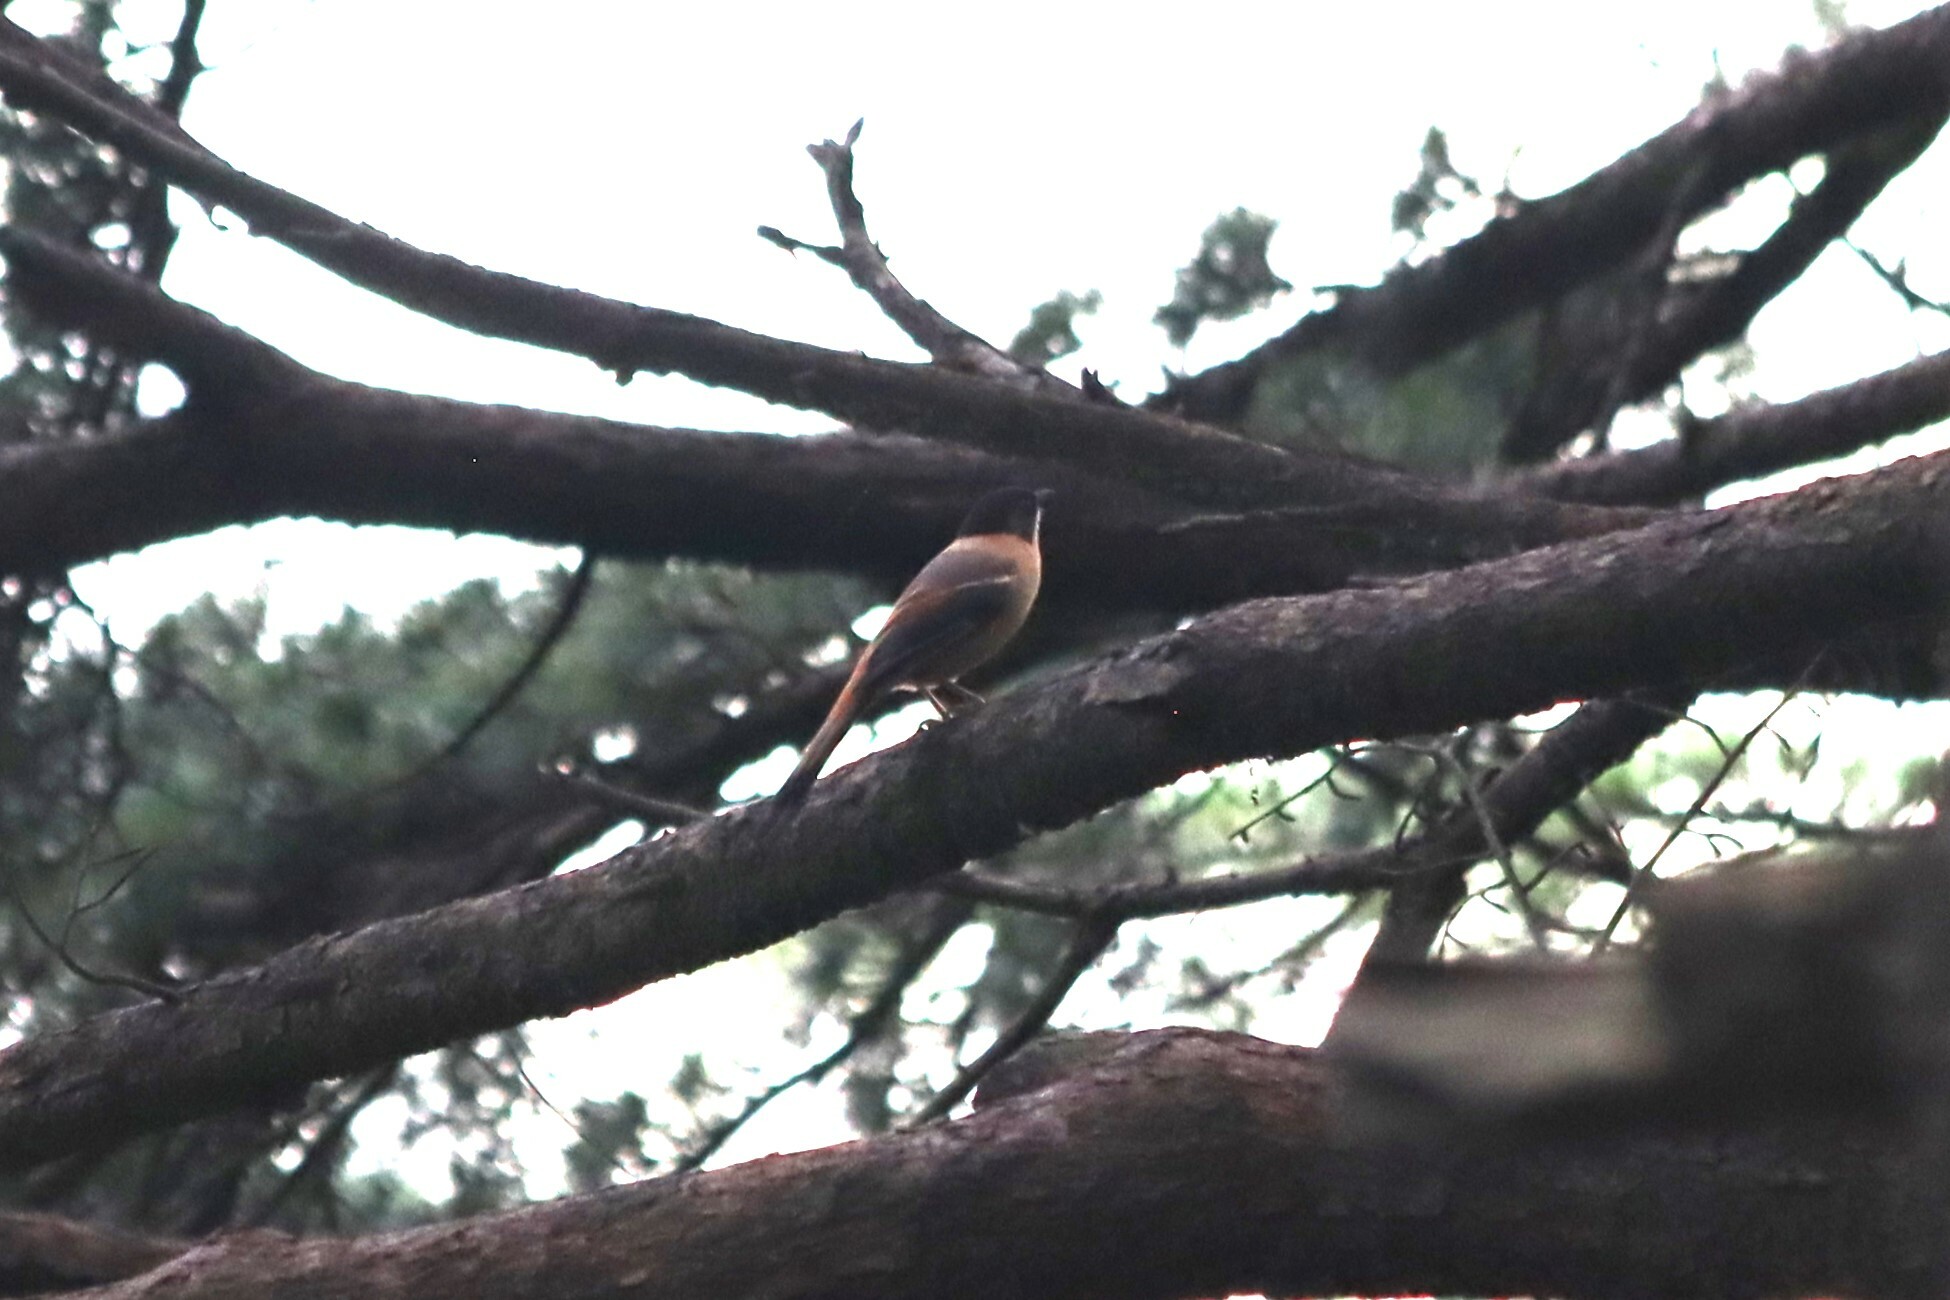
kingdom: Animalia
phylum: Chordata
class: Aves
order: Passeriformes
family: Leiothrichidae
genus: Heterophasia
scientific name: Heterophasia capistrata
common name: Rufous sibia
